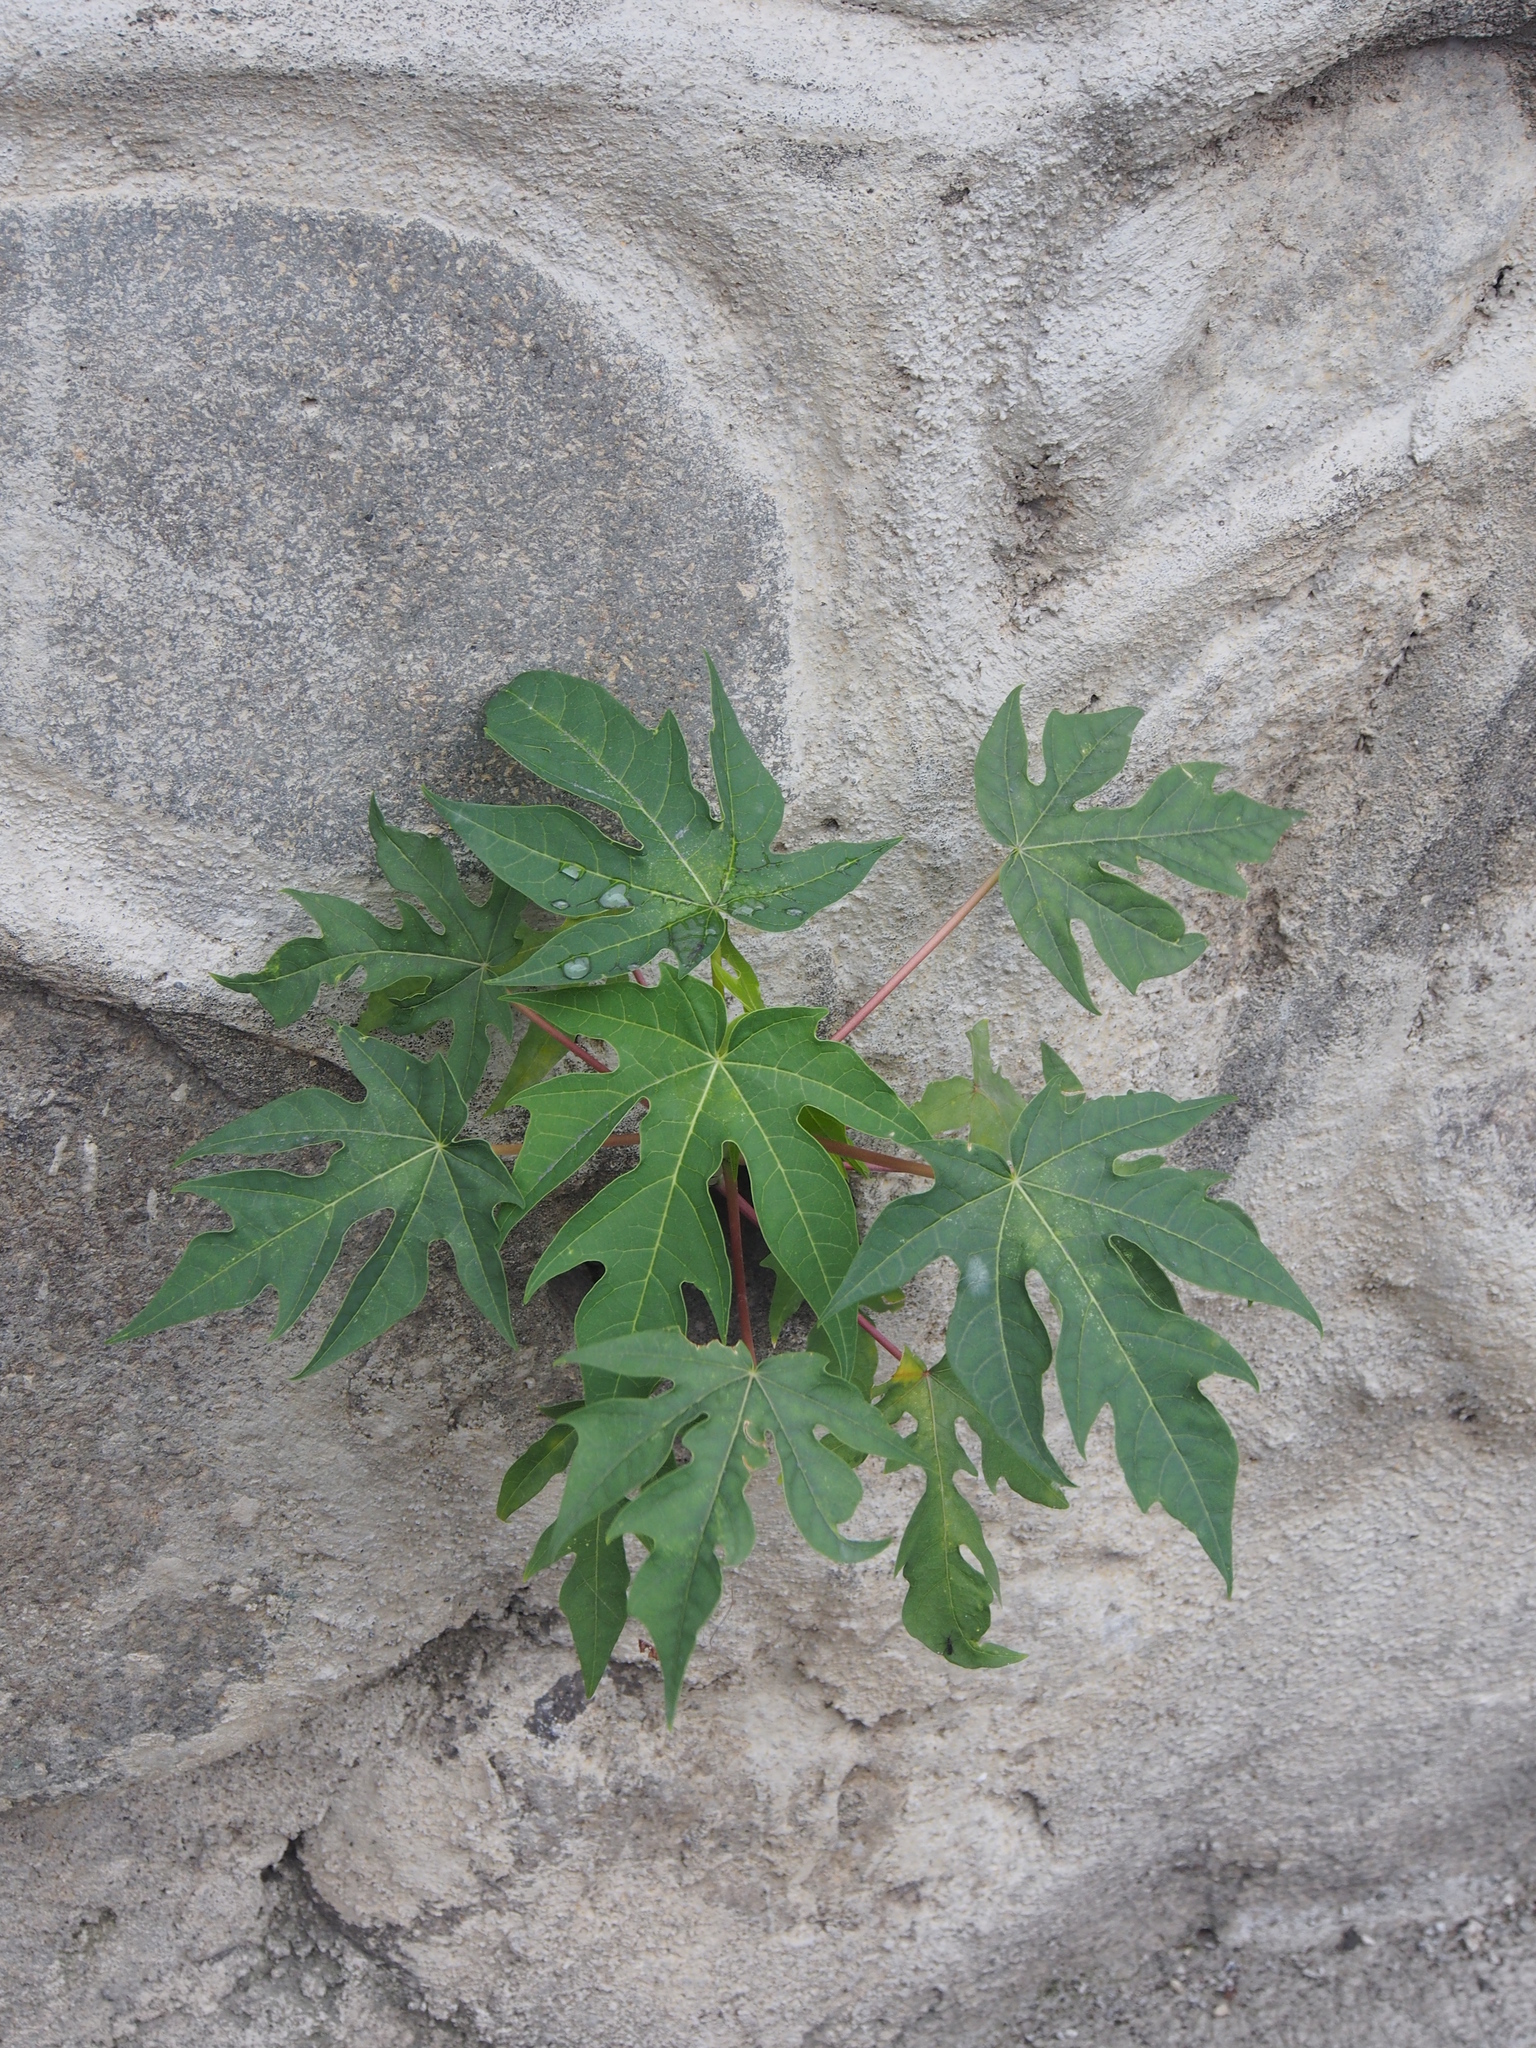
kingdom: Plantae
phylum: Tracheophyta
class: Magnoliopsida
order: Brassicales
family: Caricaceae
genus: Carica
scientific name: Carica papaya
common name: Papaya
